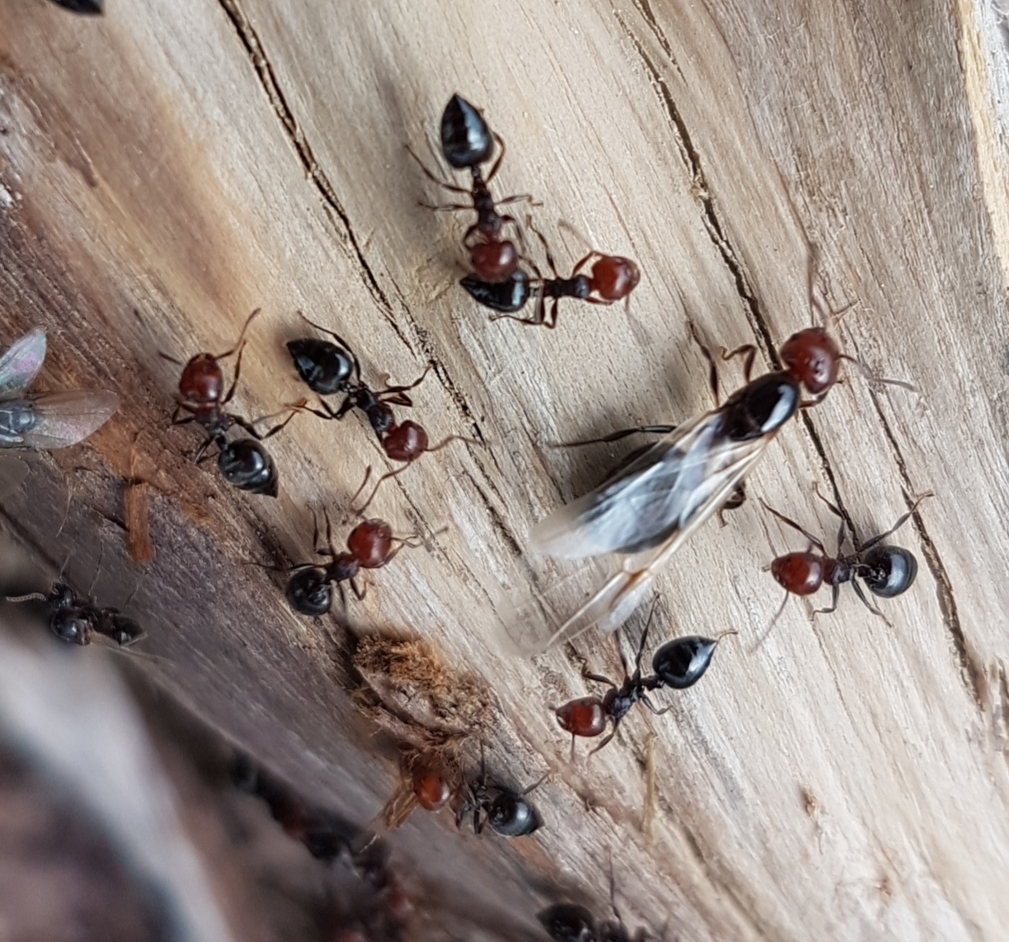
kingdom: Animalia
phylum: Arthropoda
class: Insecta
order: Hymenoptera
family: Formicidae
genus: Crematogaster
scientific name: Crematogaster scutellaris
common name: Fourmi du liège
